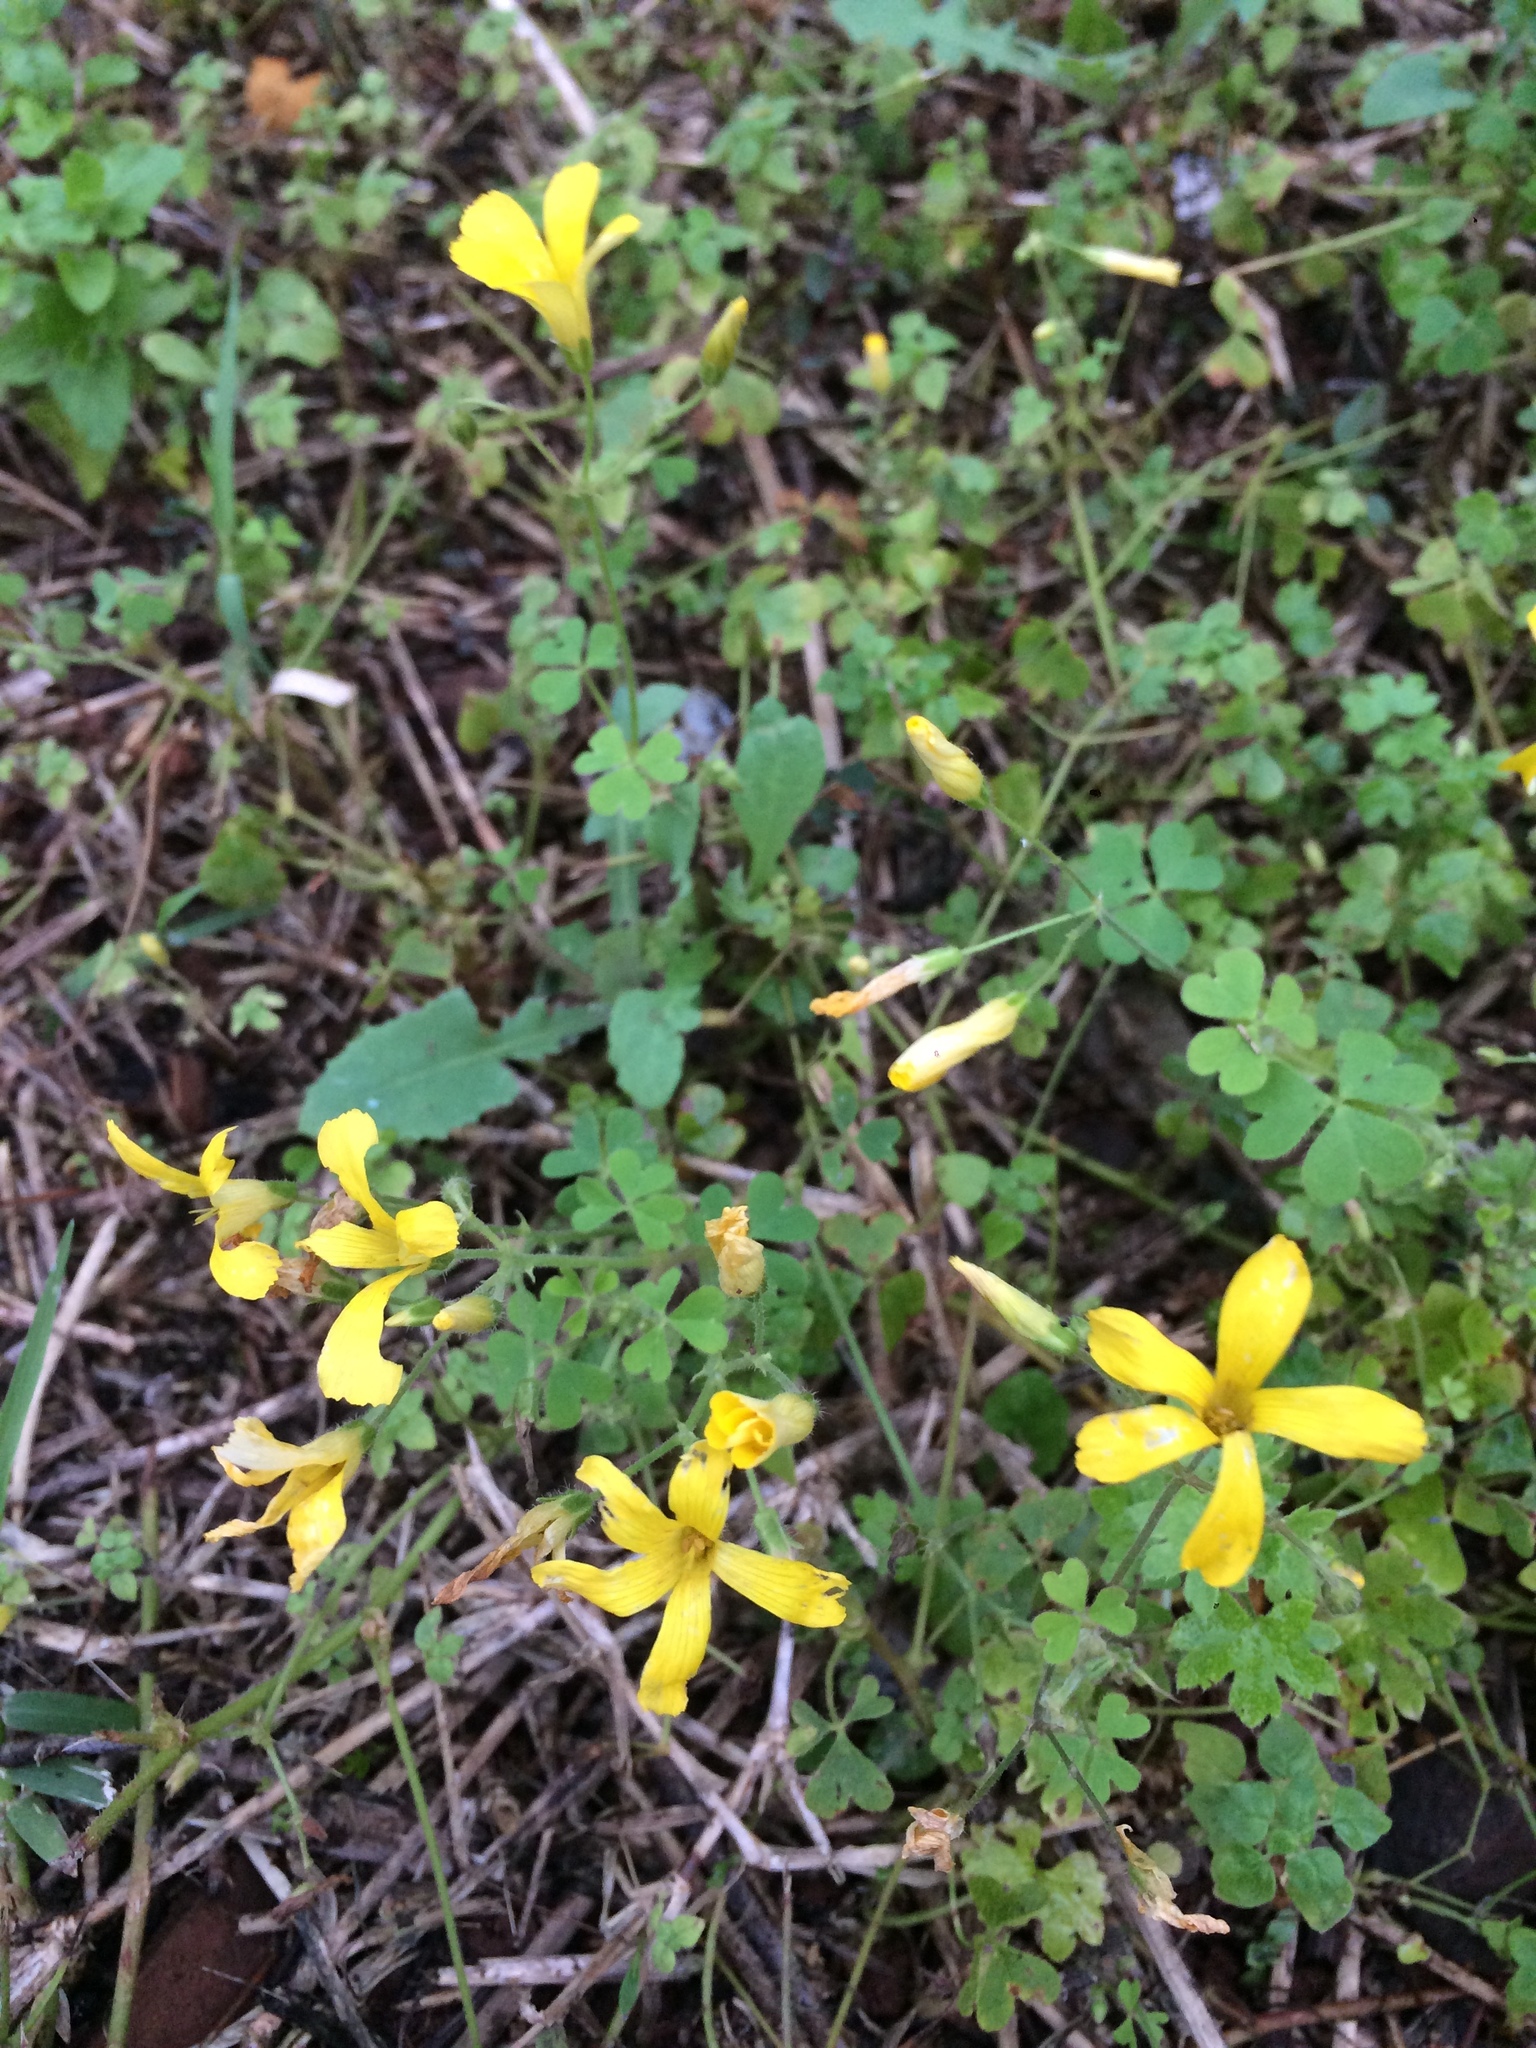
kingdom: Plantae
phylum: Tracheophyta
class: Magnoliopsida
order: Oxalidales
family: Oxalidaceae
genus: Oxalis
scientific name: Oxalis niederleinii
